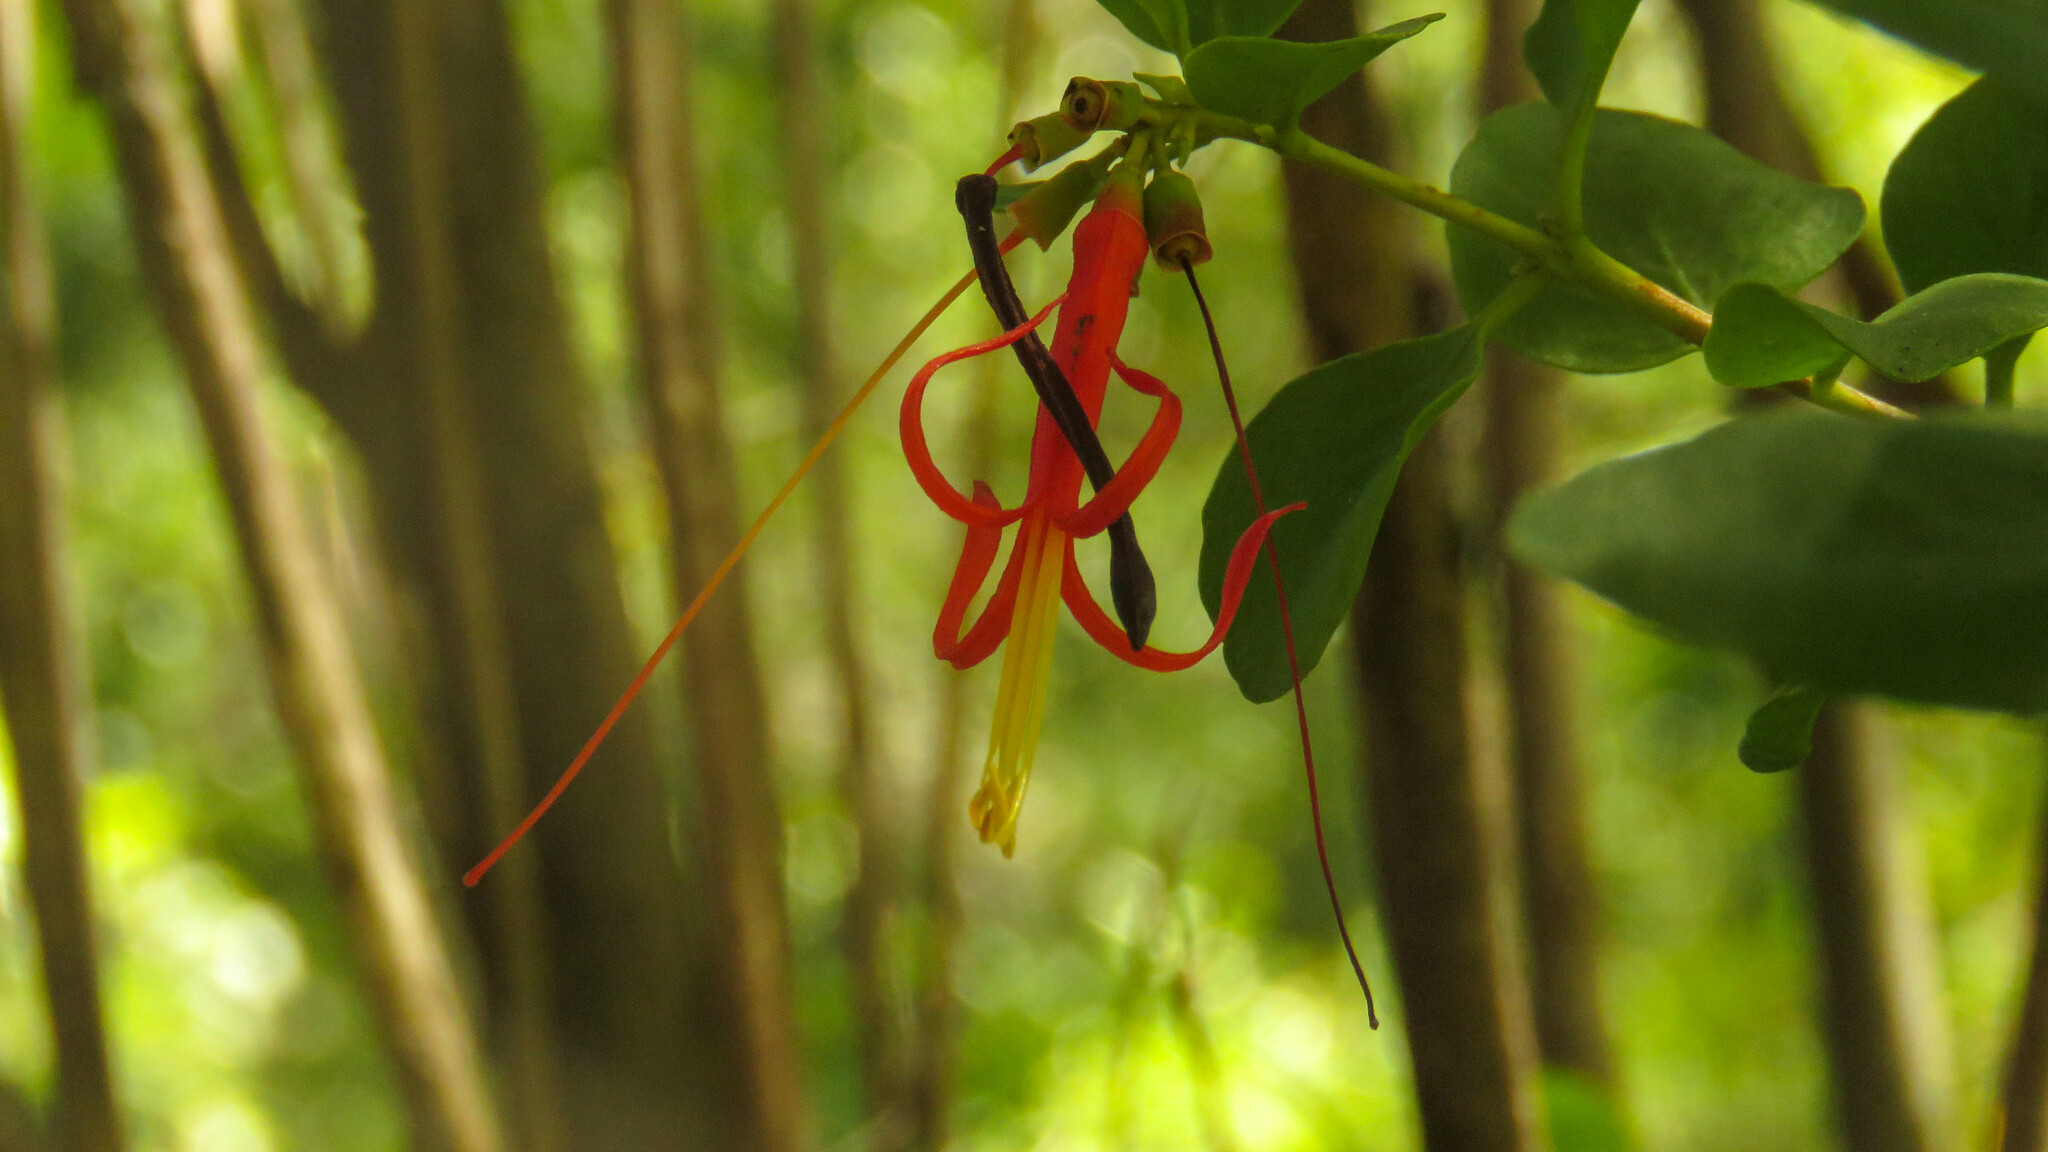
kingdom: Plantae
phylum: Tracheophyta
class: Magnoliopsida
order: Santalales
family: Loranthaceae
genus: Tristerix
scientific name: Tristerix corymbosus
